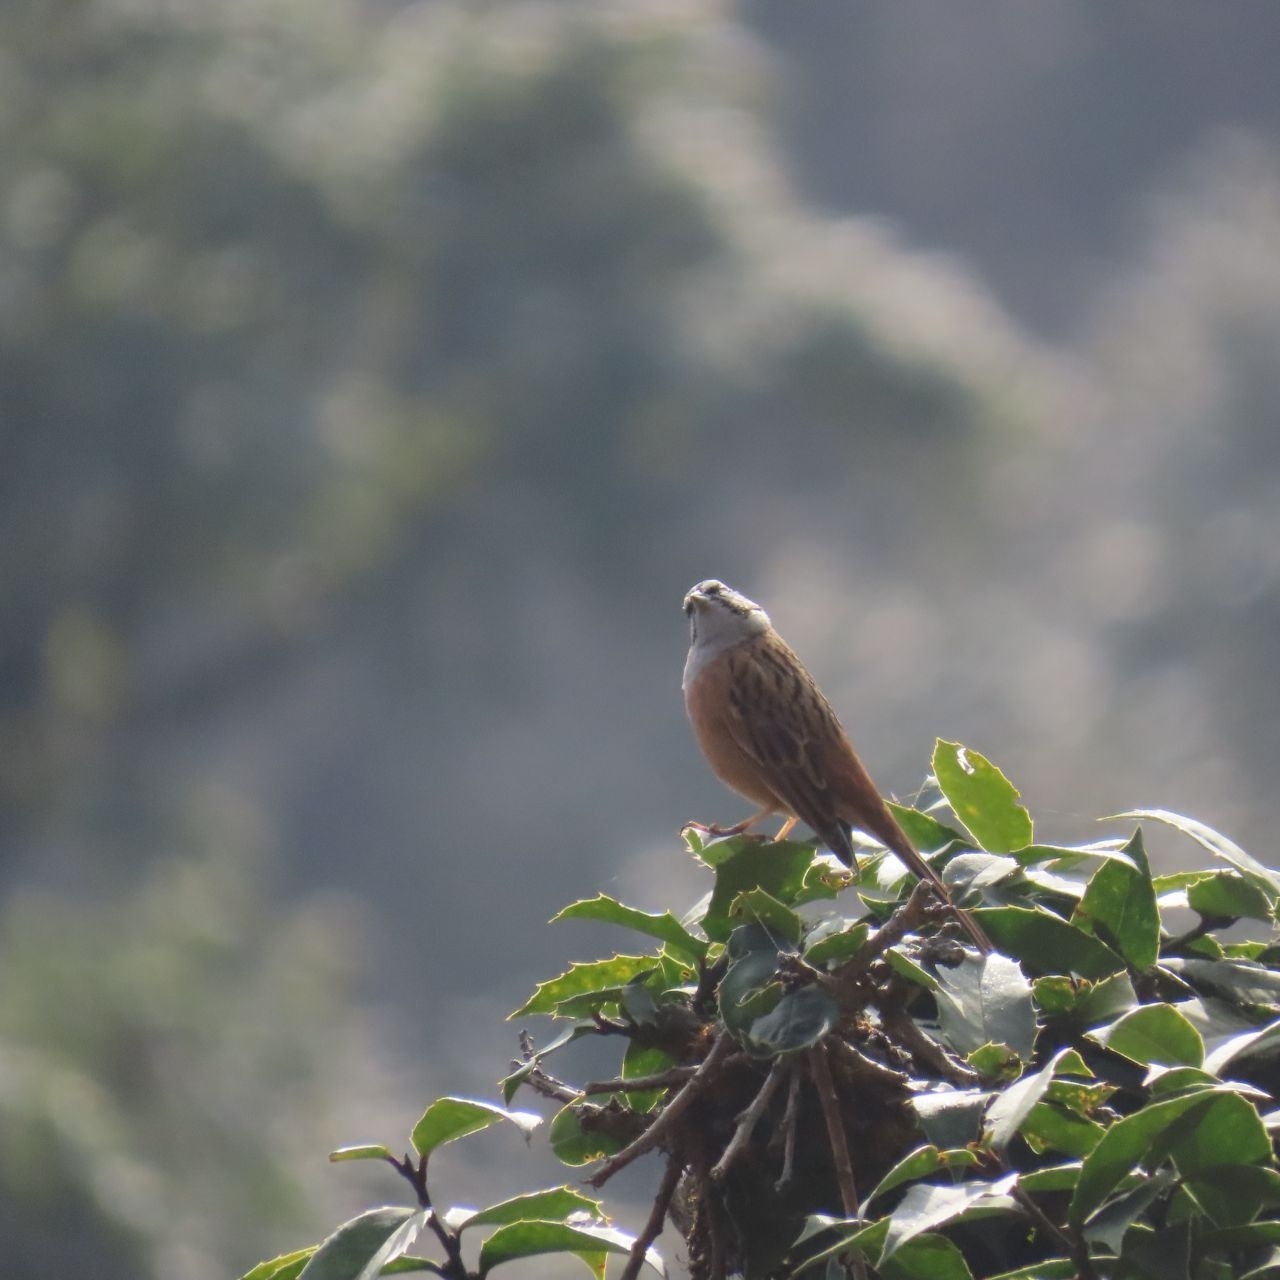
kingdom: Animalia
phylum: Chordata
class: Aves
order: Passeriformes
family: Emberizidae
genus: Emberiza
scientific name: Emberiza cia
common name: Rock bunting
